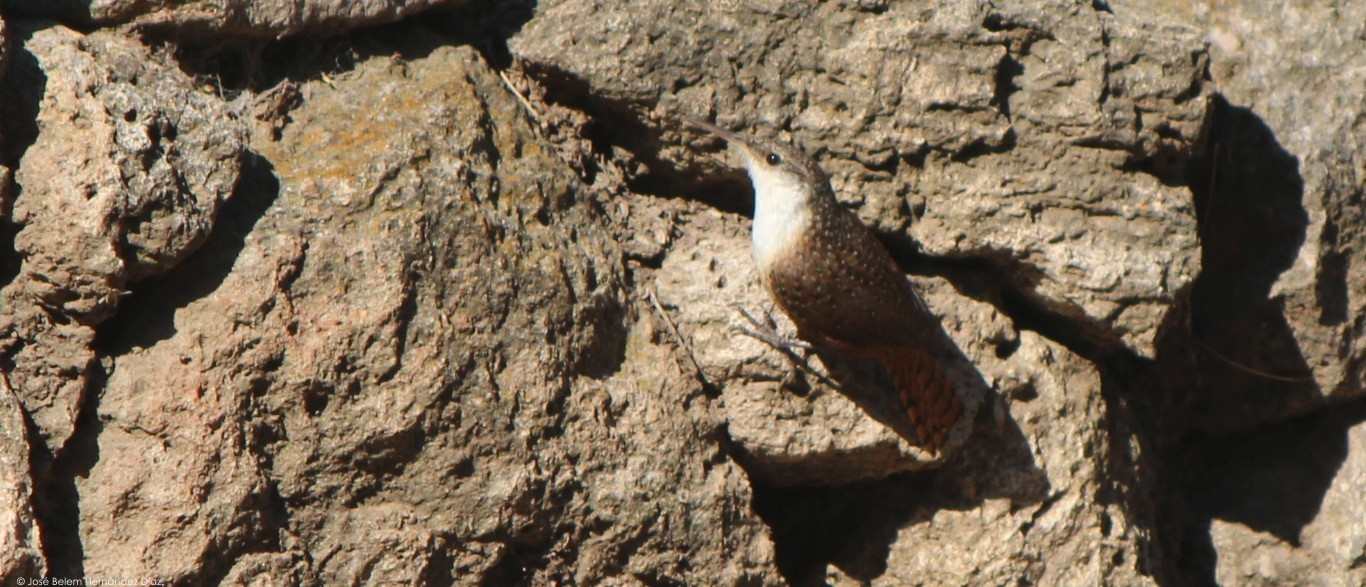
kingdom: Animalia
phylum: Chordata
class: Aves
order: Passeriformes
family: Troglodytidae
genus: Catherpes
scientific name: Catherpes mexicanus
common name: Canyon wren
